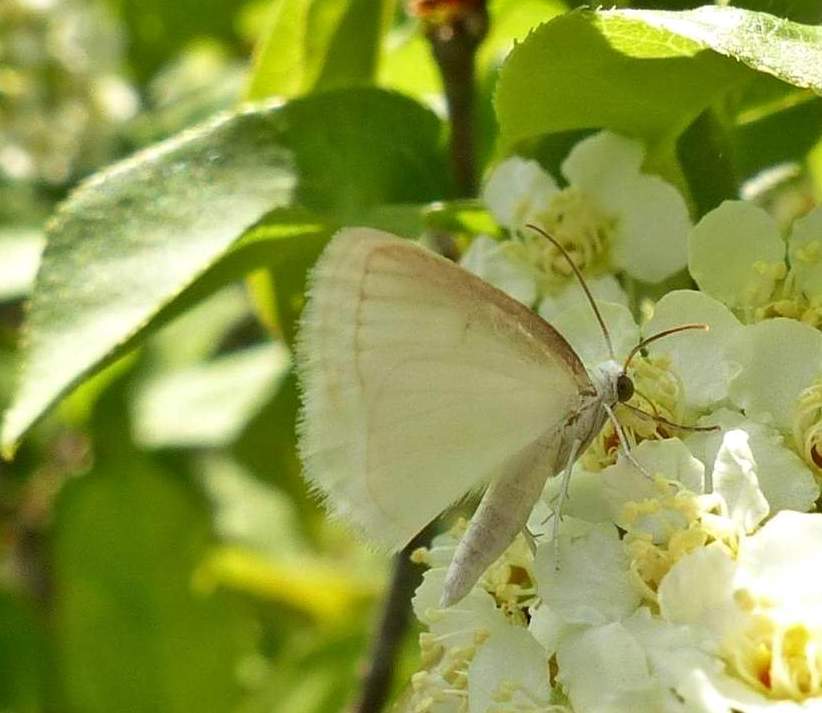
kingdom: Animalia
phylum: Arthropoda
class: Insecta
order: Lepidoptera
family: Geometridae
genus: Lomographa
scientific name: Lomographa vestaliata
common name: White spring moth
